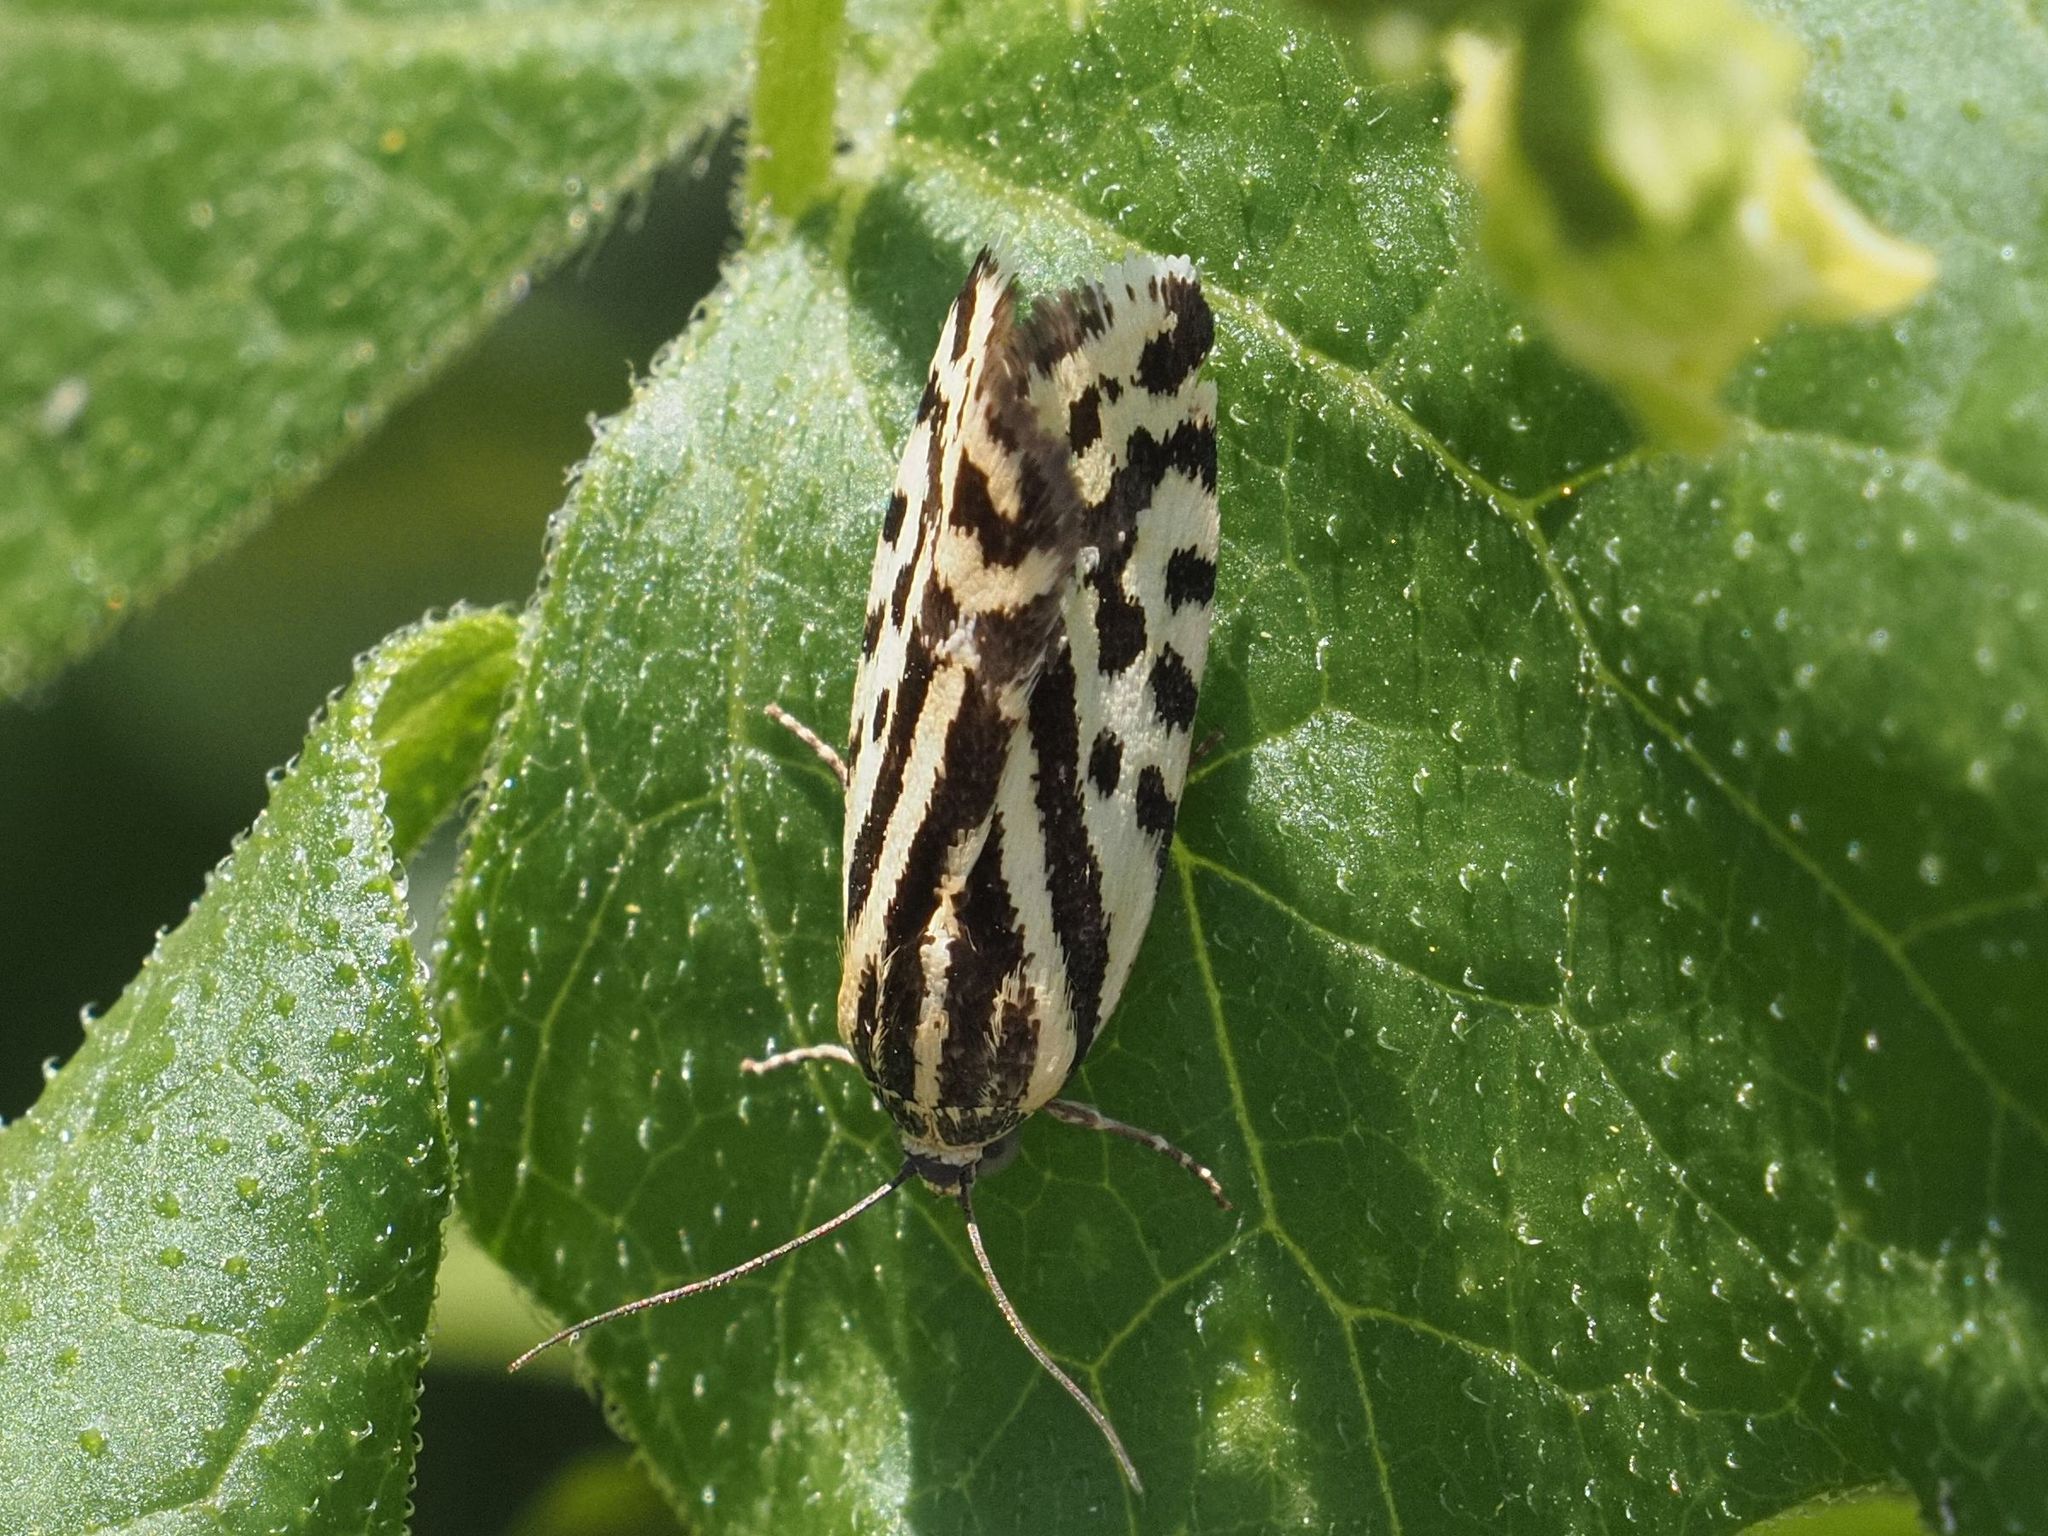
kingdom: Animalia
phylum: Arthropoda
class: Insecta
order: Lepidoptera
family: Noctuidae
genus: Acontia
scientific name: Acontia trabealis
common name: Spotted sulphur
